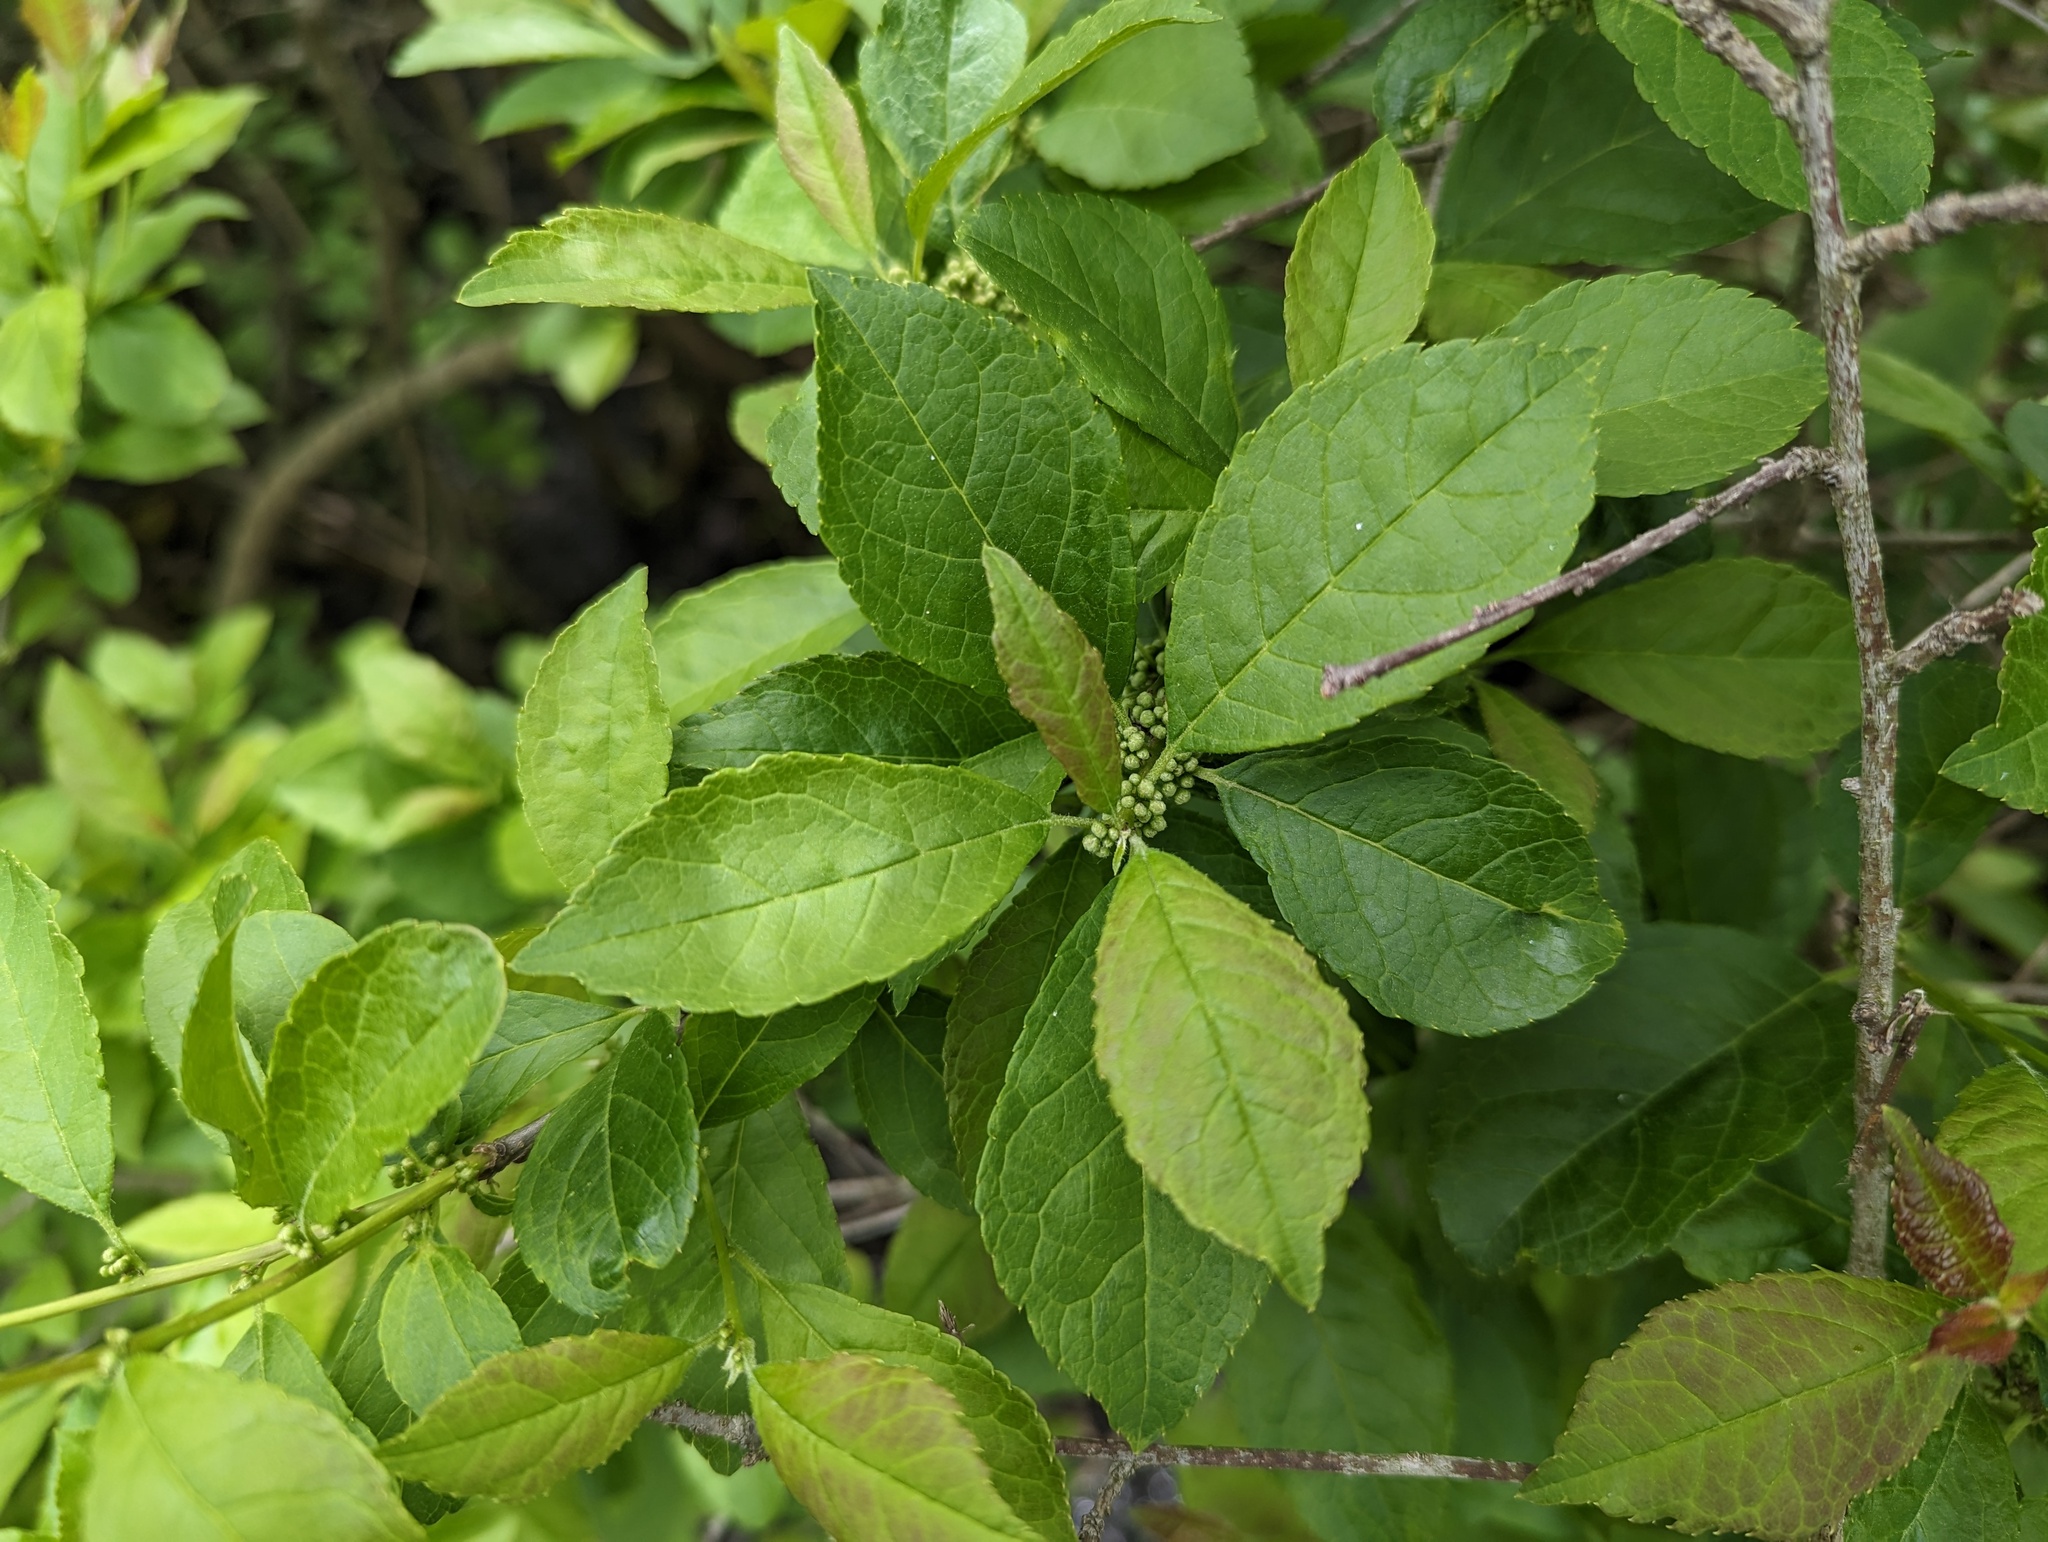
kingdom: Plantae
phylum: Tracheophyta
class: Magnoliopsida
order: Aquifoliales
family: Aquifoliaceae
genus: Ilex
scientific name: Ilex verticillata
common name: Virginia winterberry
